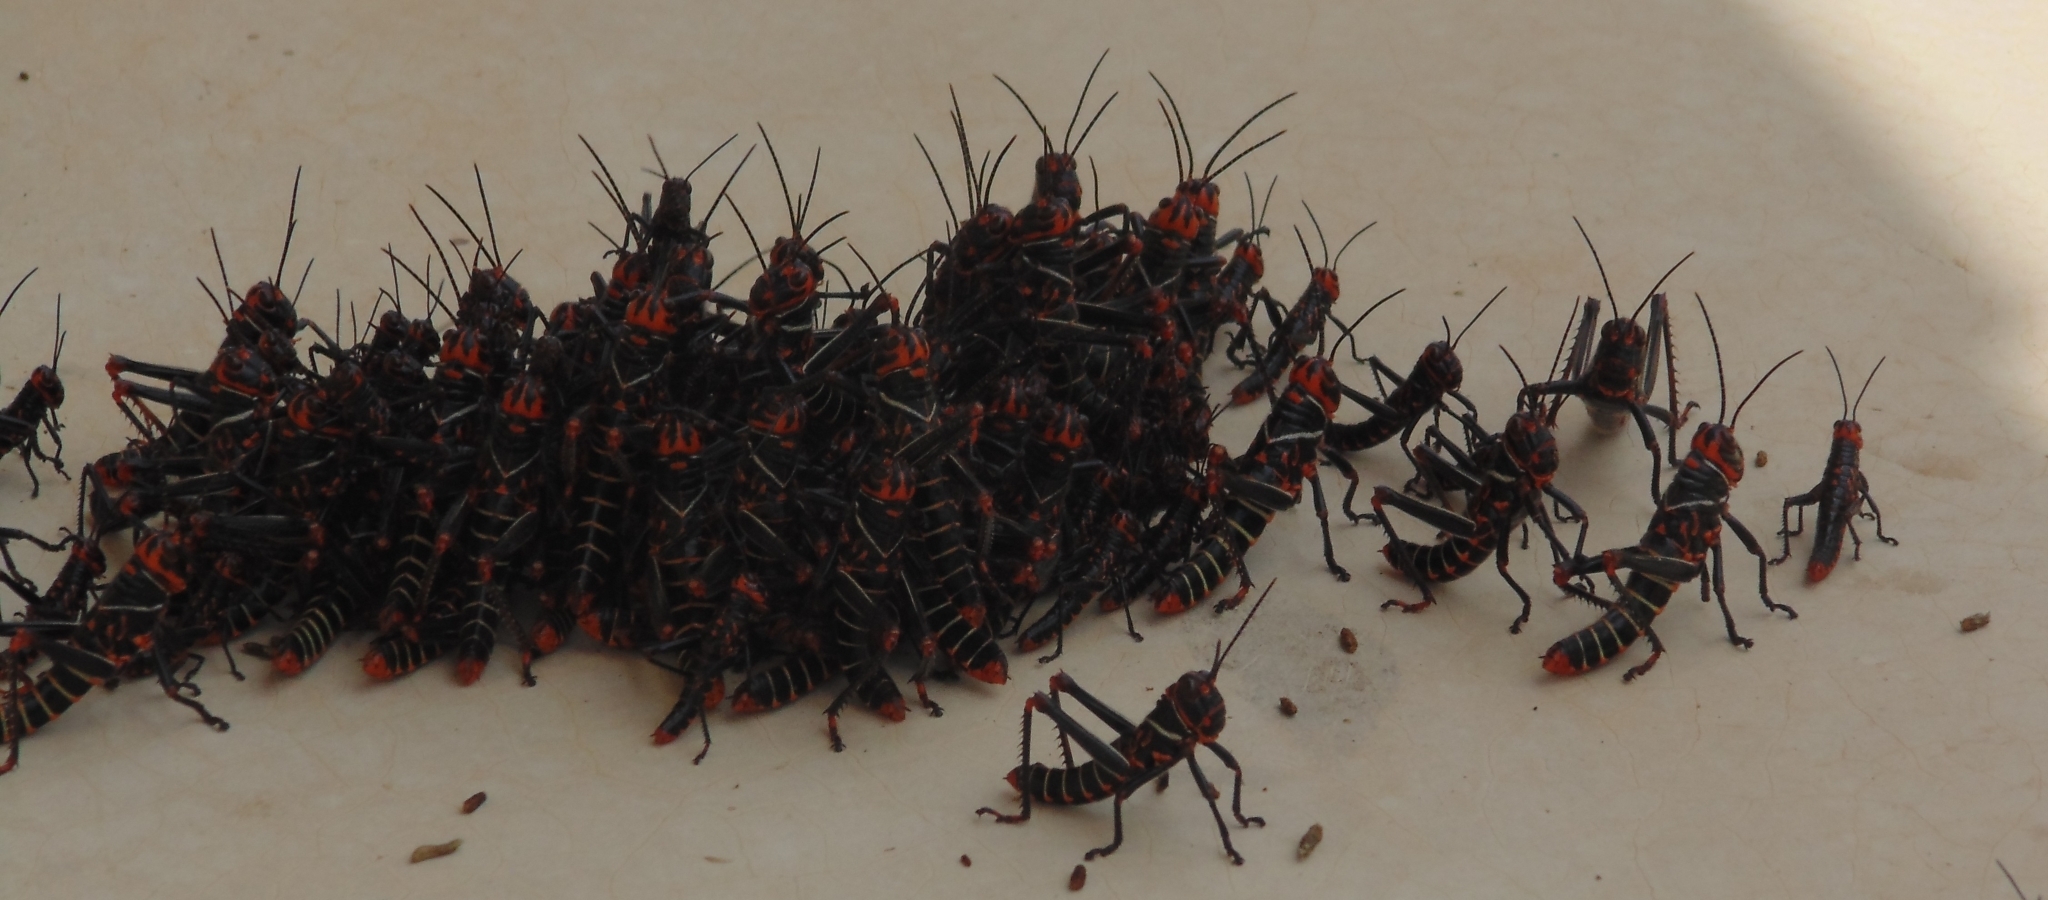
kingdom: Animalia
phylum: Arthropoda
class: Insecta
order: Orthoptera
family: Romaleidae
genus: Tropidacris
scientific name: Tropidacris collaris
